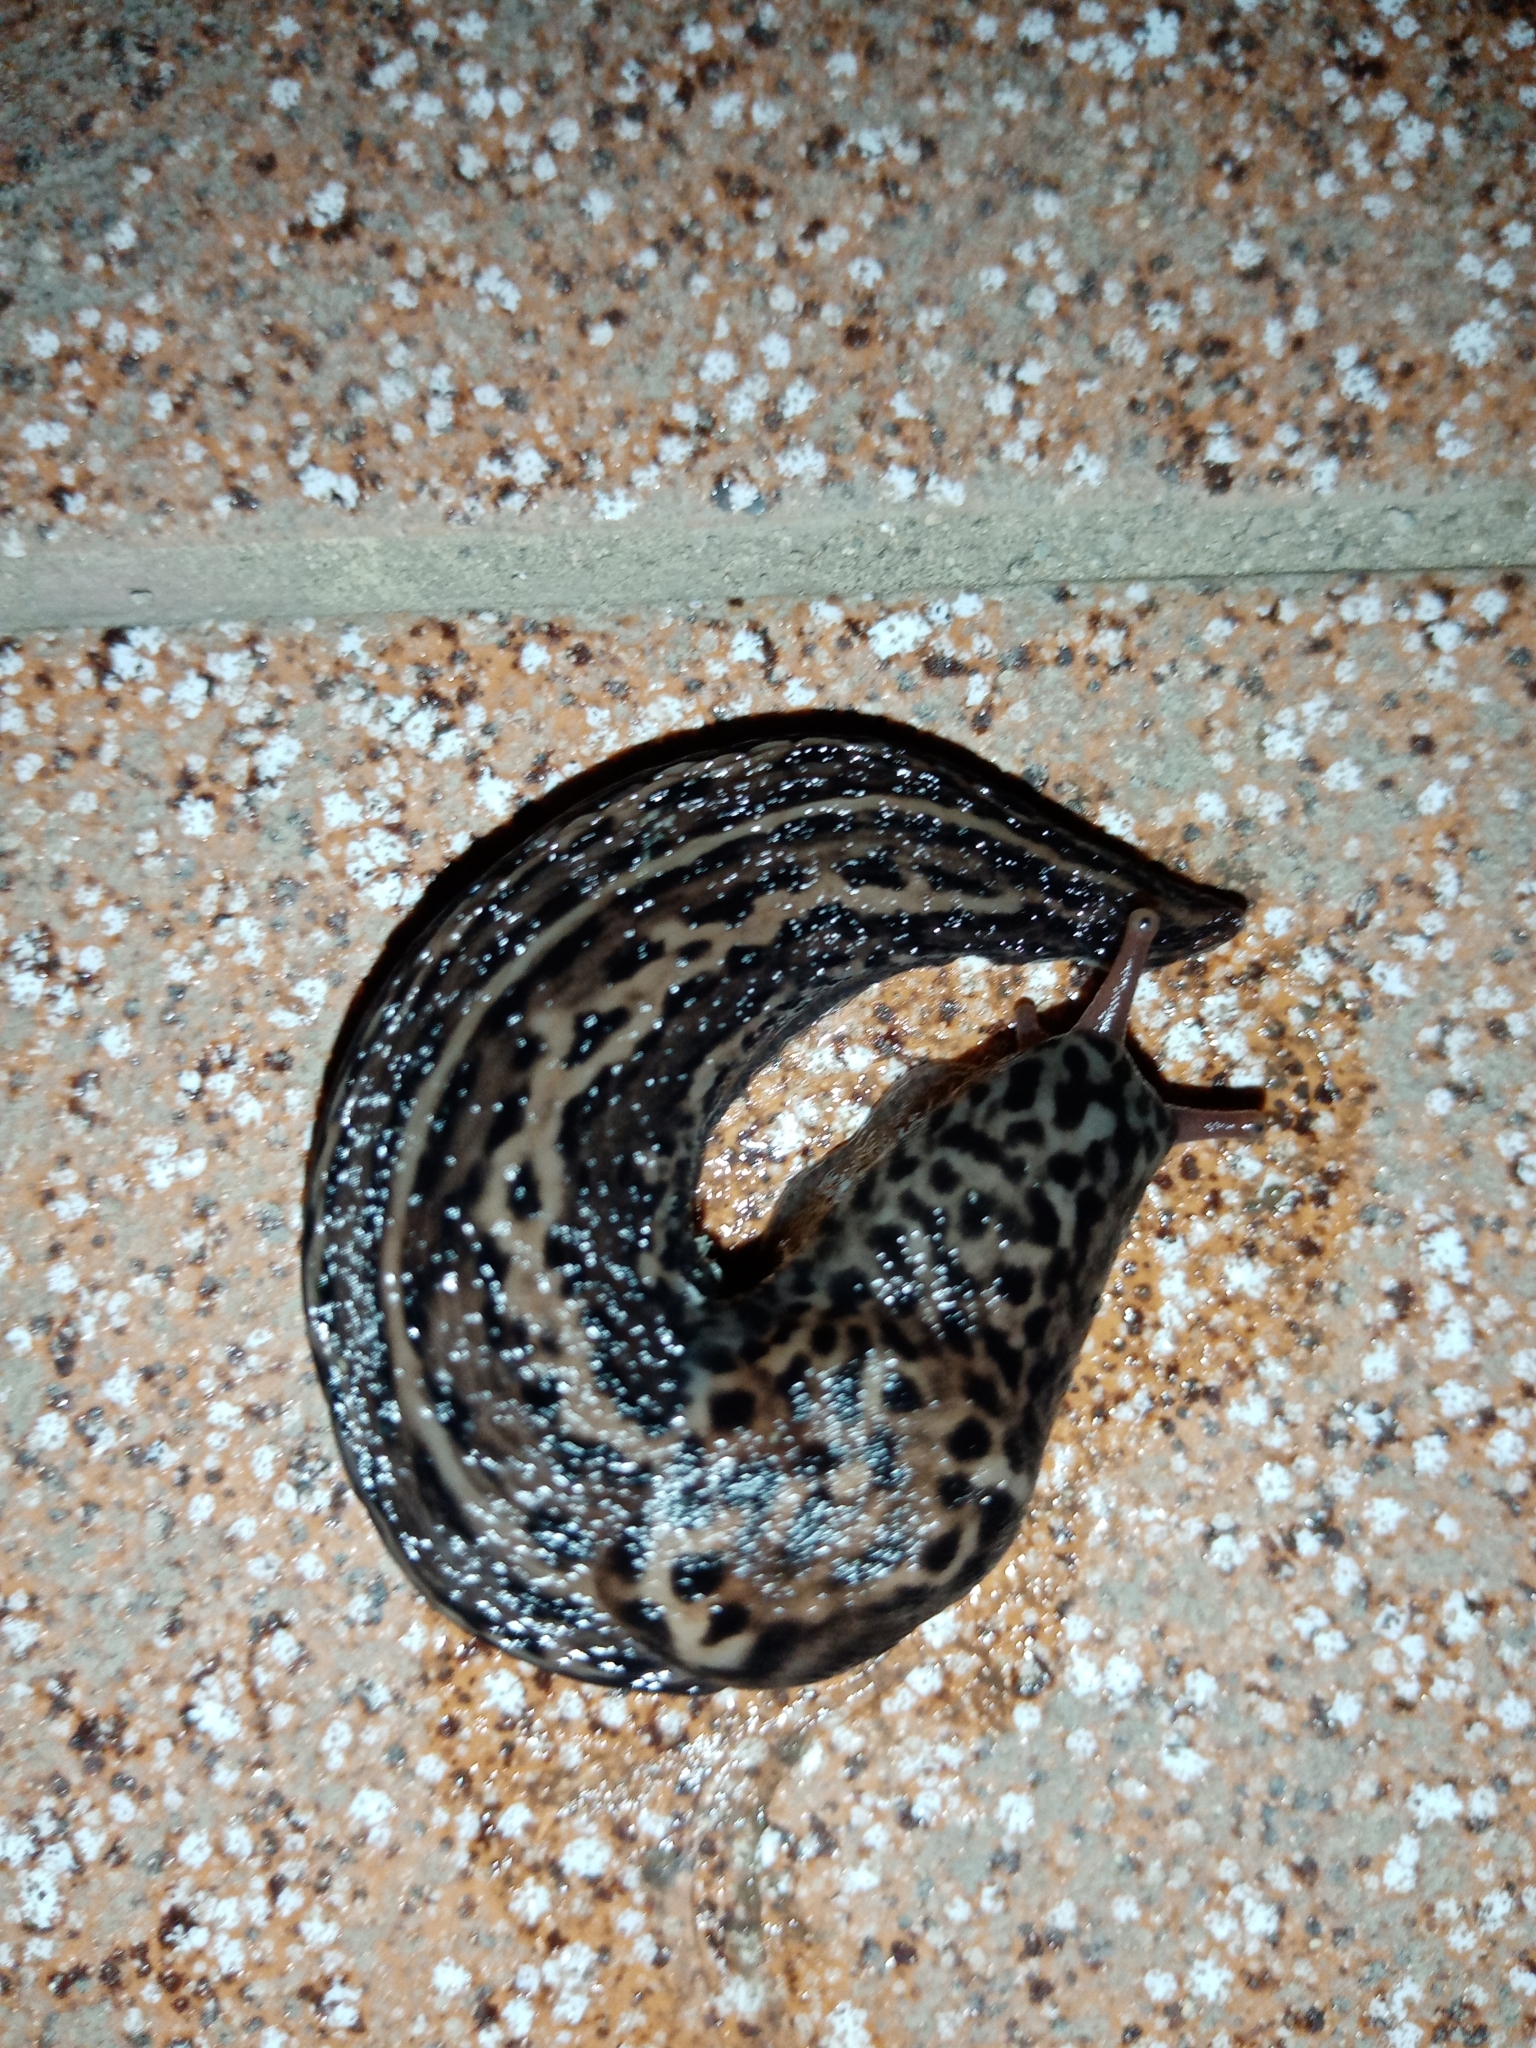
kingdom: Animalia
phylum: Mollusca
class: Gastropoda
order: Stylommatophora
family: Limacidae
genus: Limax
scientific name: Limax maximus
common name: Great grey slug
